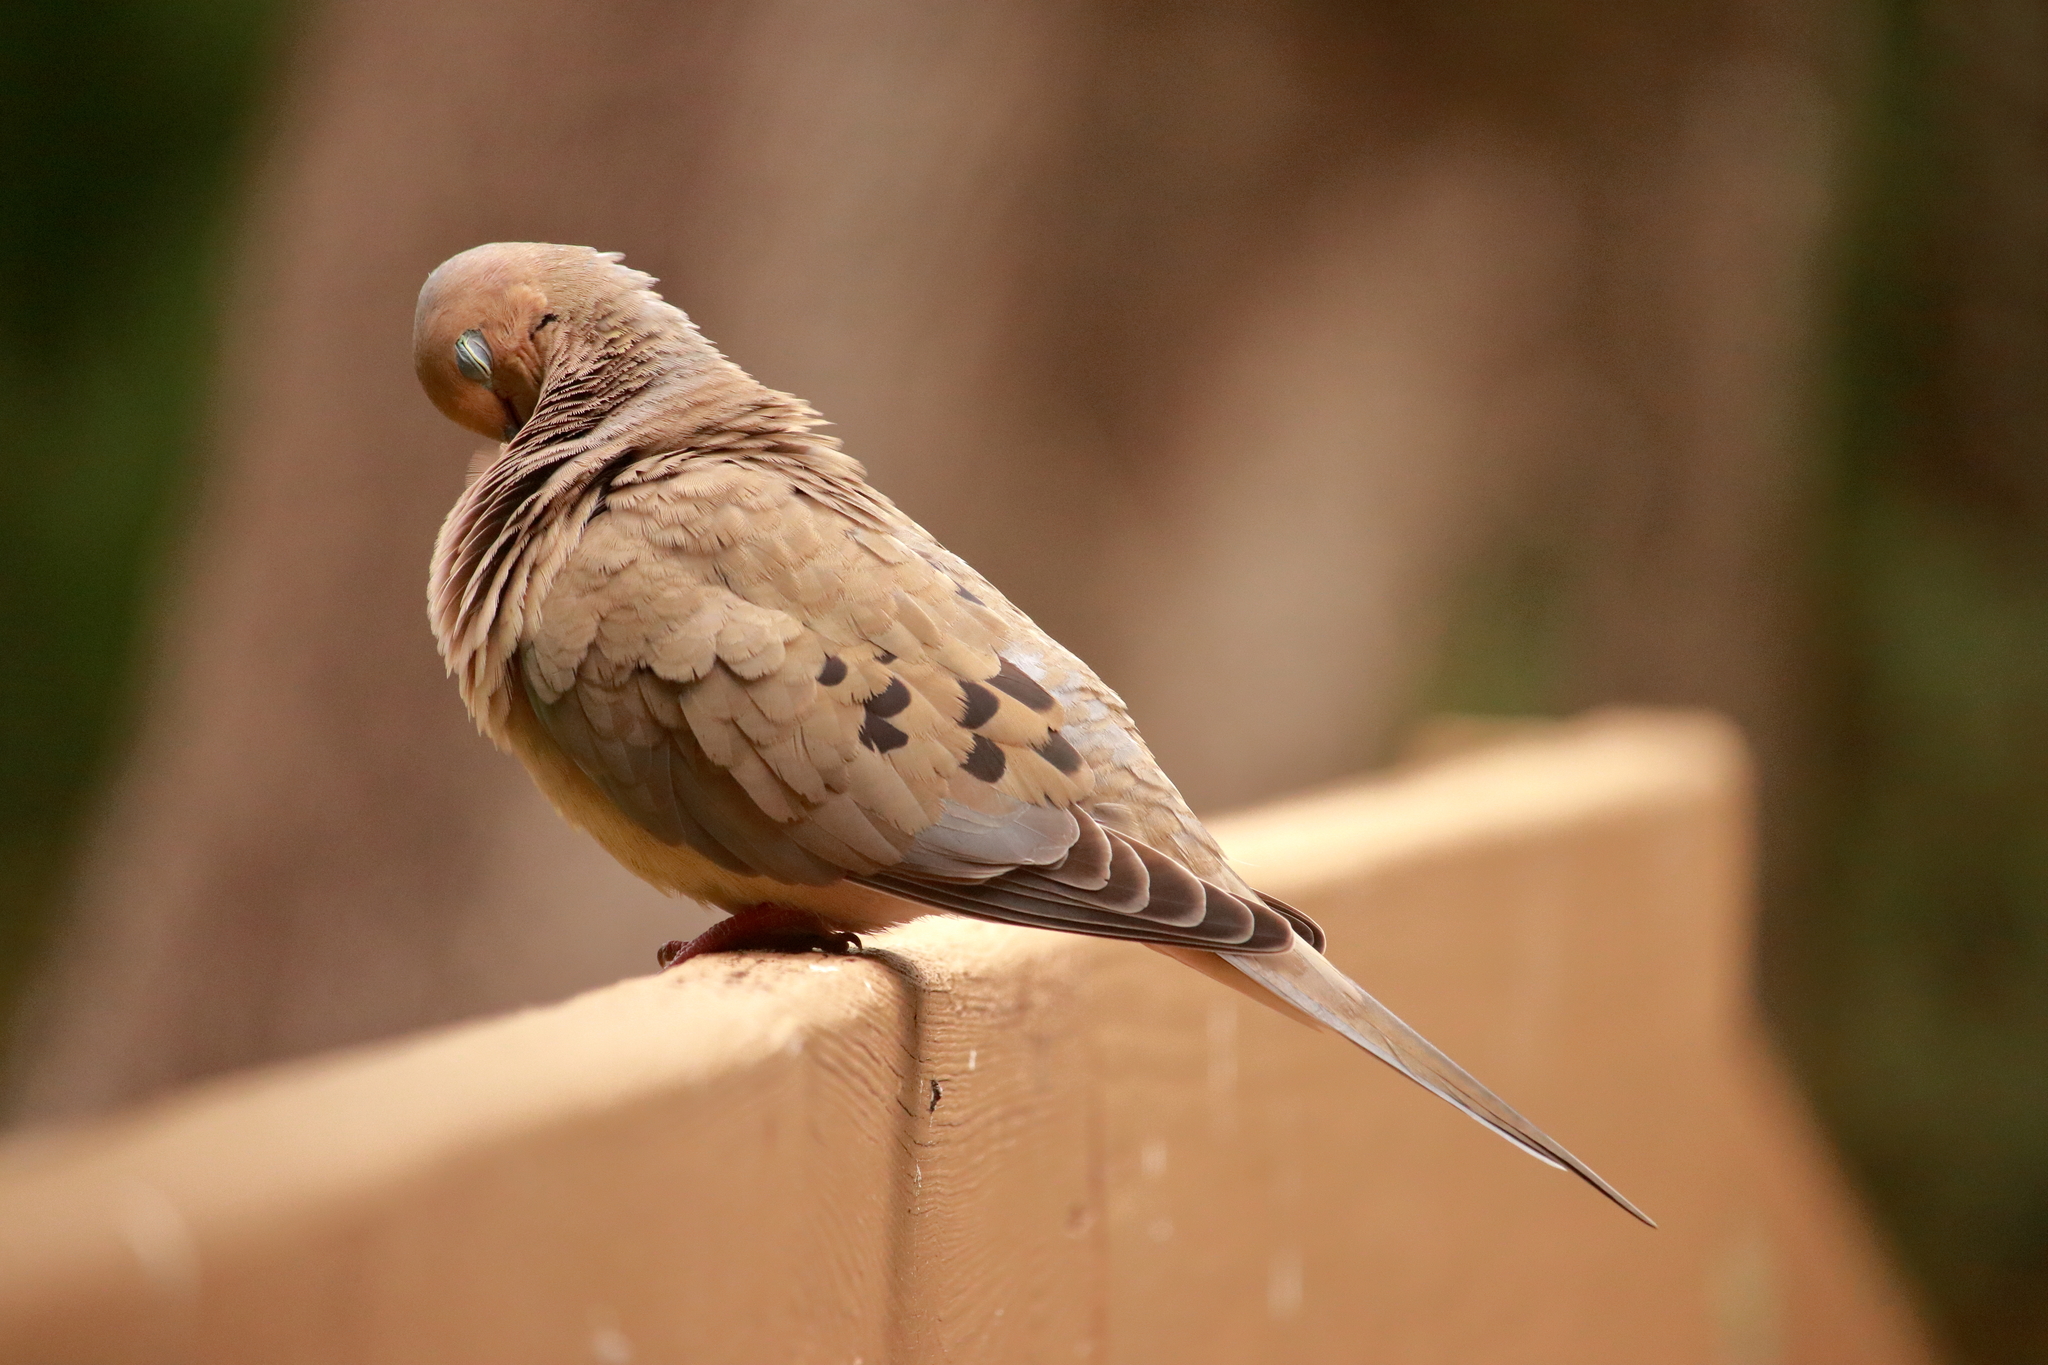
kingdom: Animalia
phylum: Chordata
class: Aves
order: Columbiformes
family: Columbidae
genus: Zenaida
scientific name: Zenaida macroura
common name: Mourning dove
